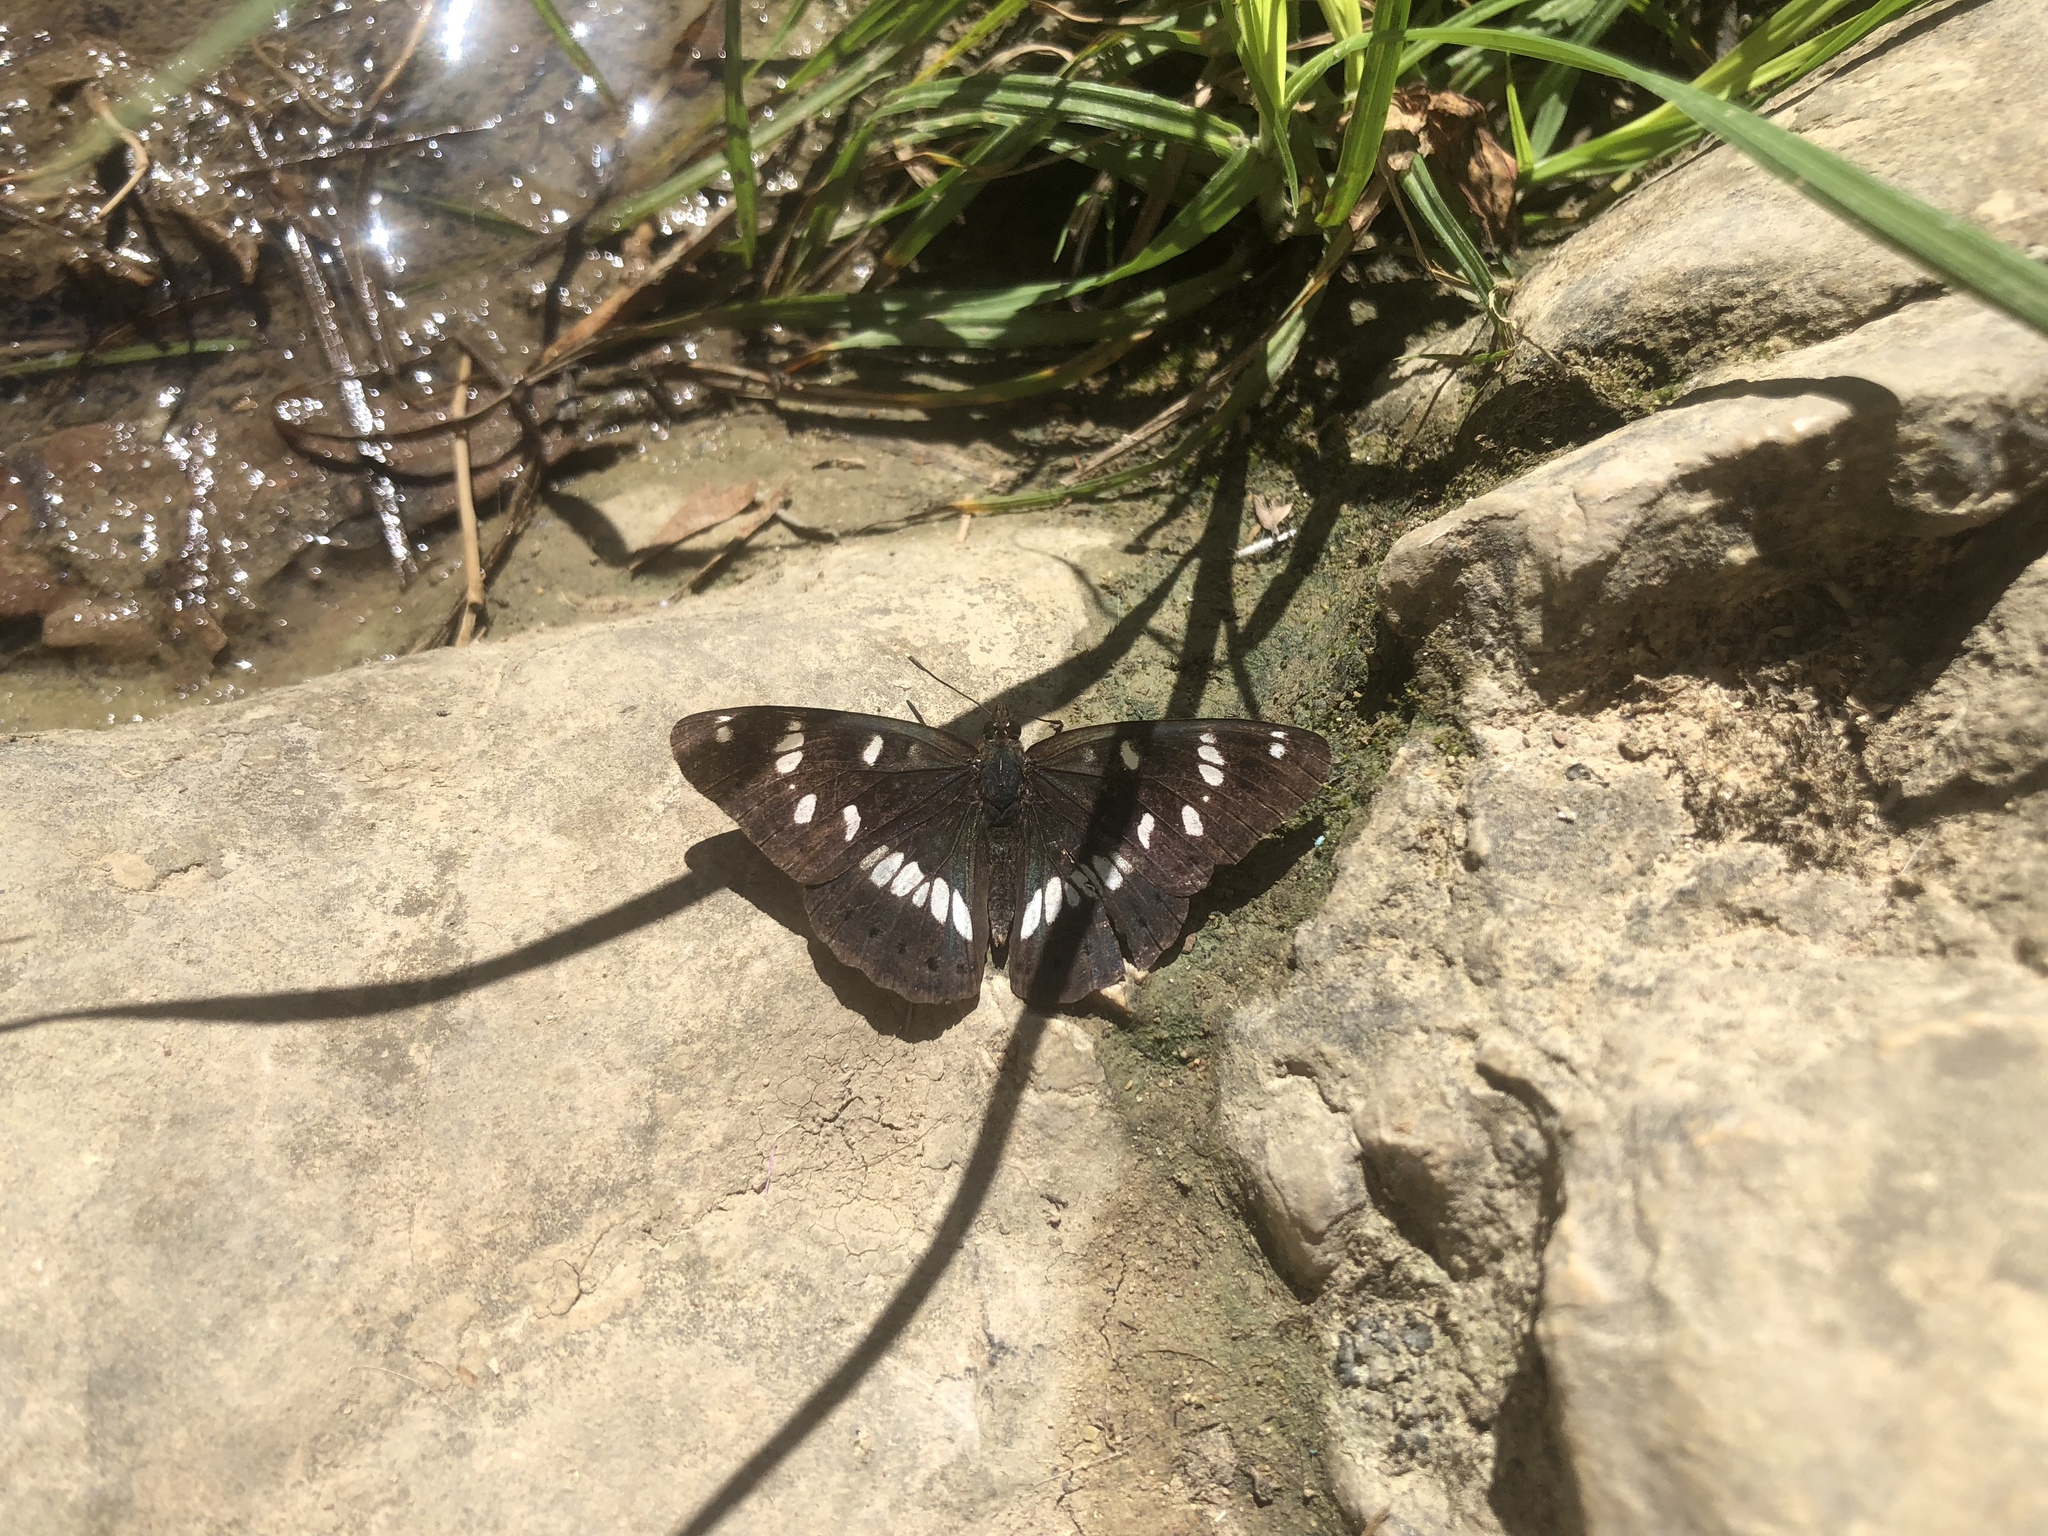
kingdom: Animalia
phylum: Arthropoda
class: Insecta
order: Lepidoptera
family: Nymphalidae
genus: Limenitis
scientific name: Limenitis reducta
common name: Southern white admiral
